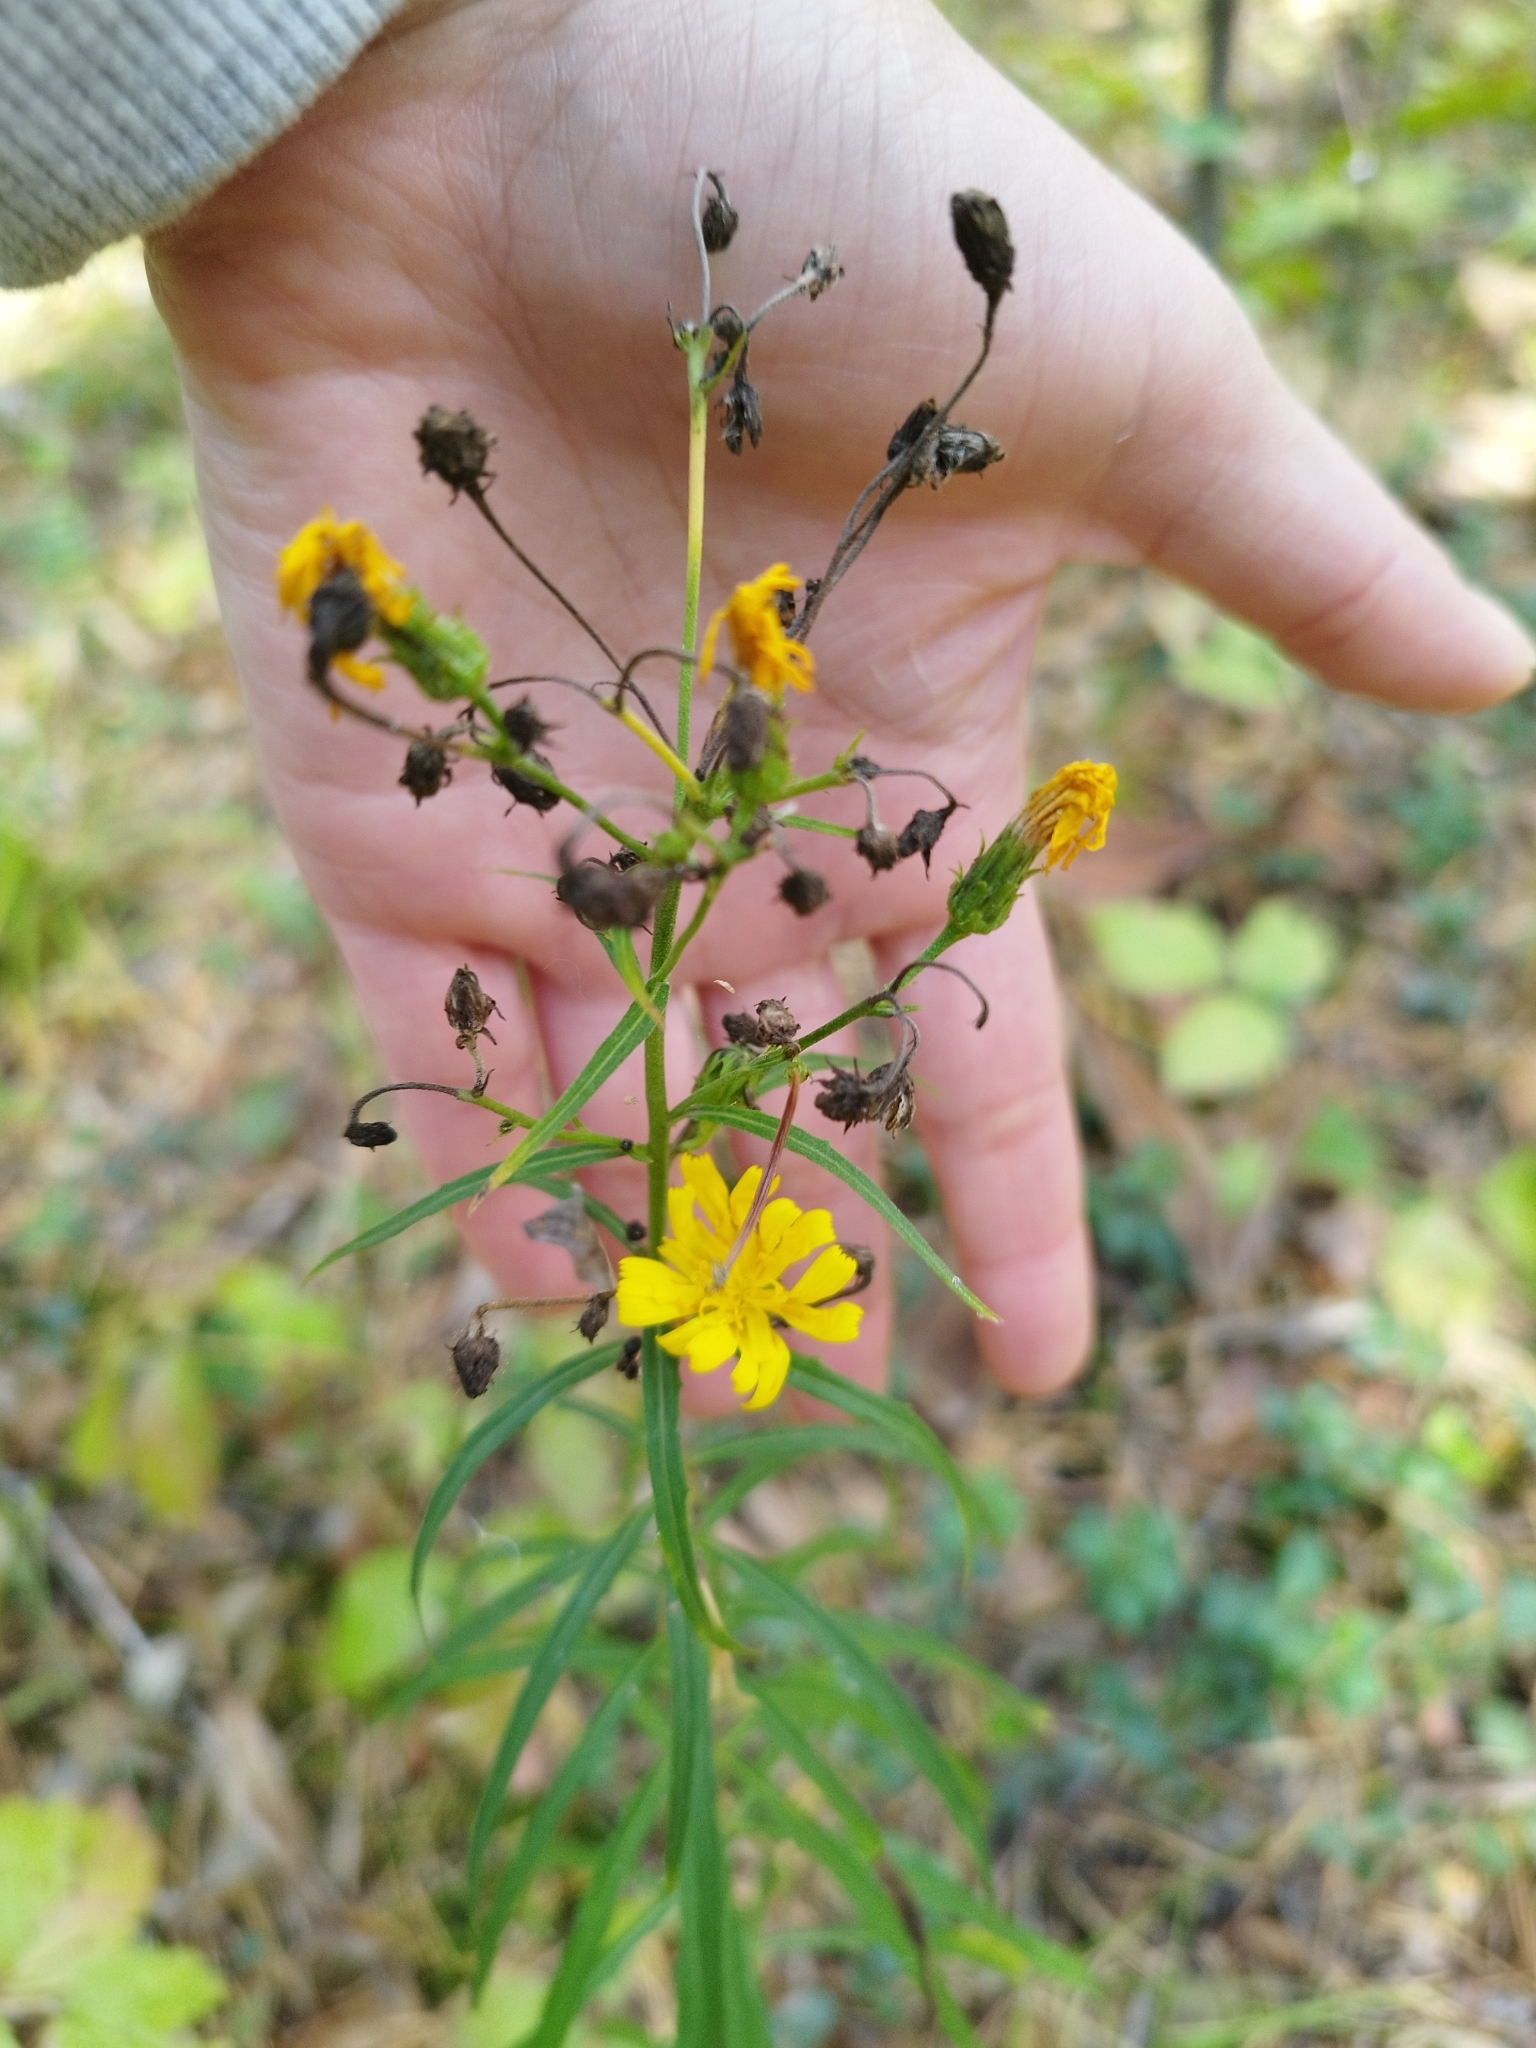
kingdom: Plantae
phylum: Tracheophyta
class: Magnoliopsida
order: Asterales
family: Asteraceae
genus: Hieracium
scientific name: Hieracium umbellatum
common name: Northern hawkweed
